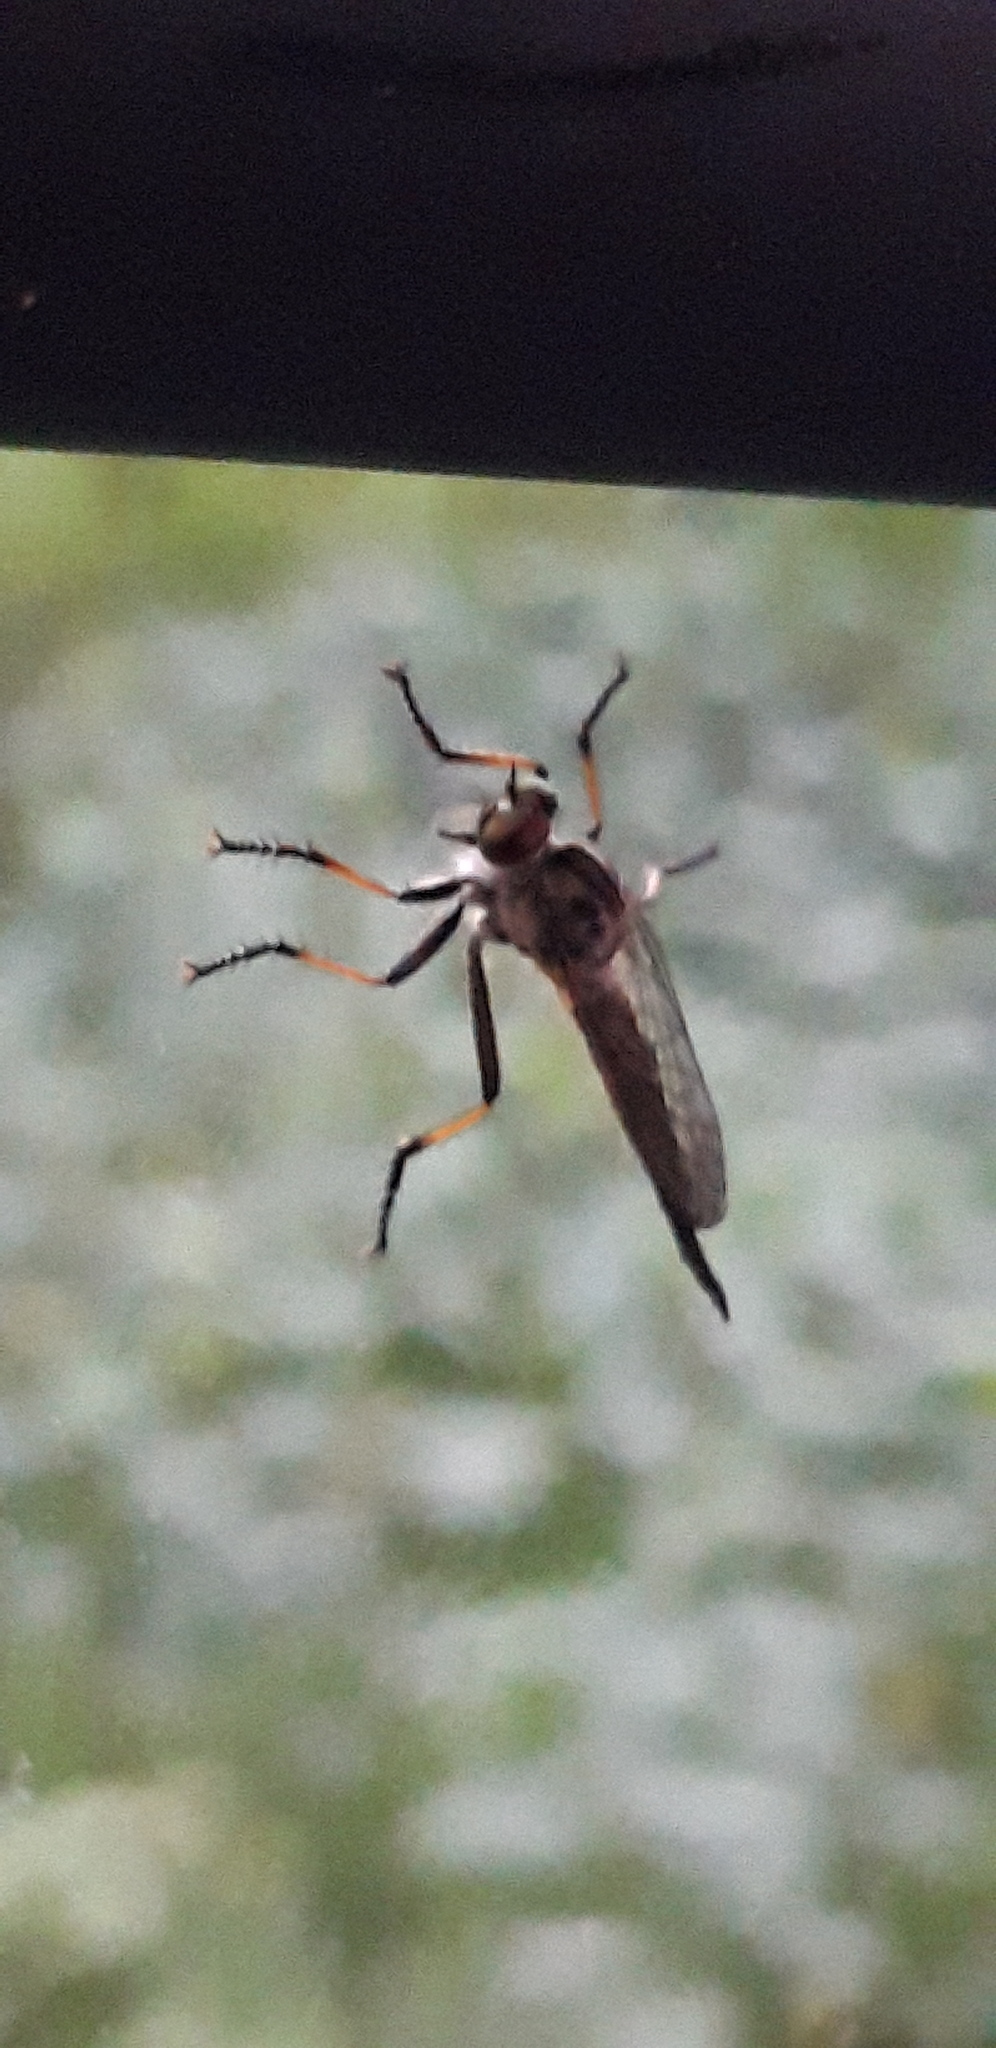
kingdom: Animalia
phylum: Arthropoda
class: Insecta
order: Diptera
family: Asilidae
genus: Neoitamus
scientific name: Neoitamus cyanurus
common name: Common awl robberfly
